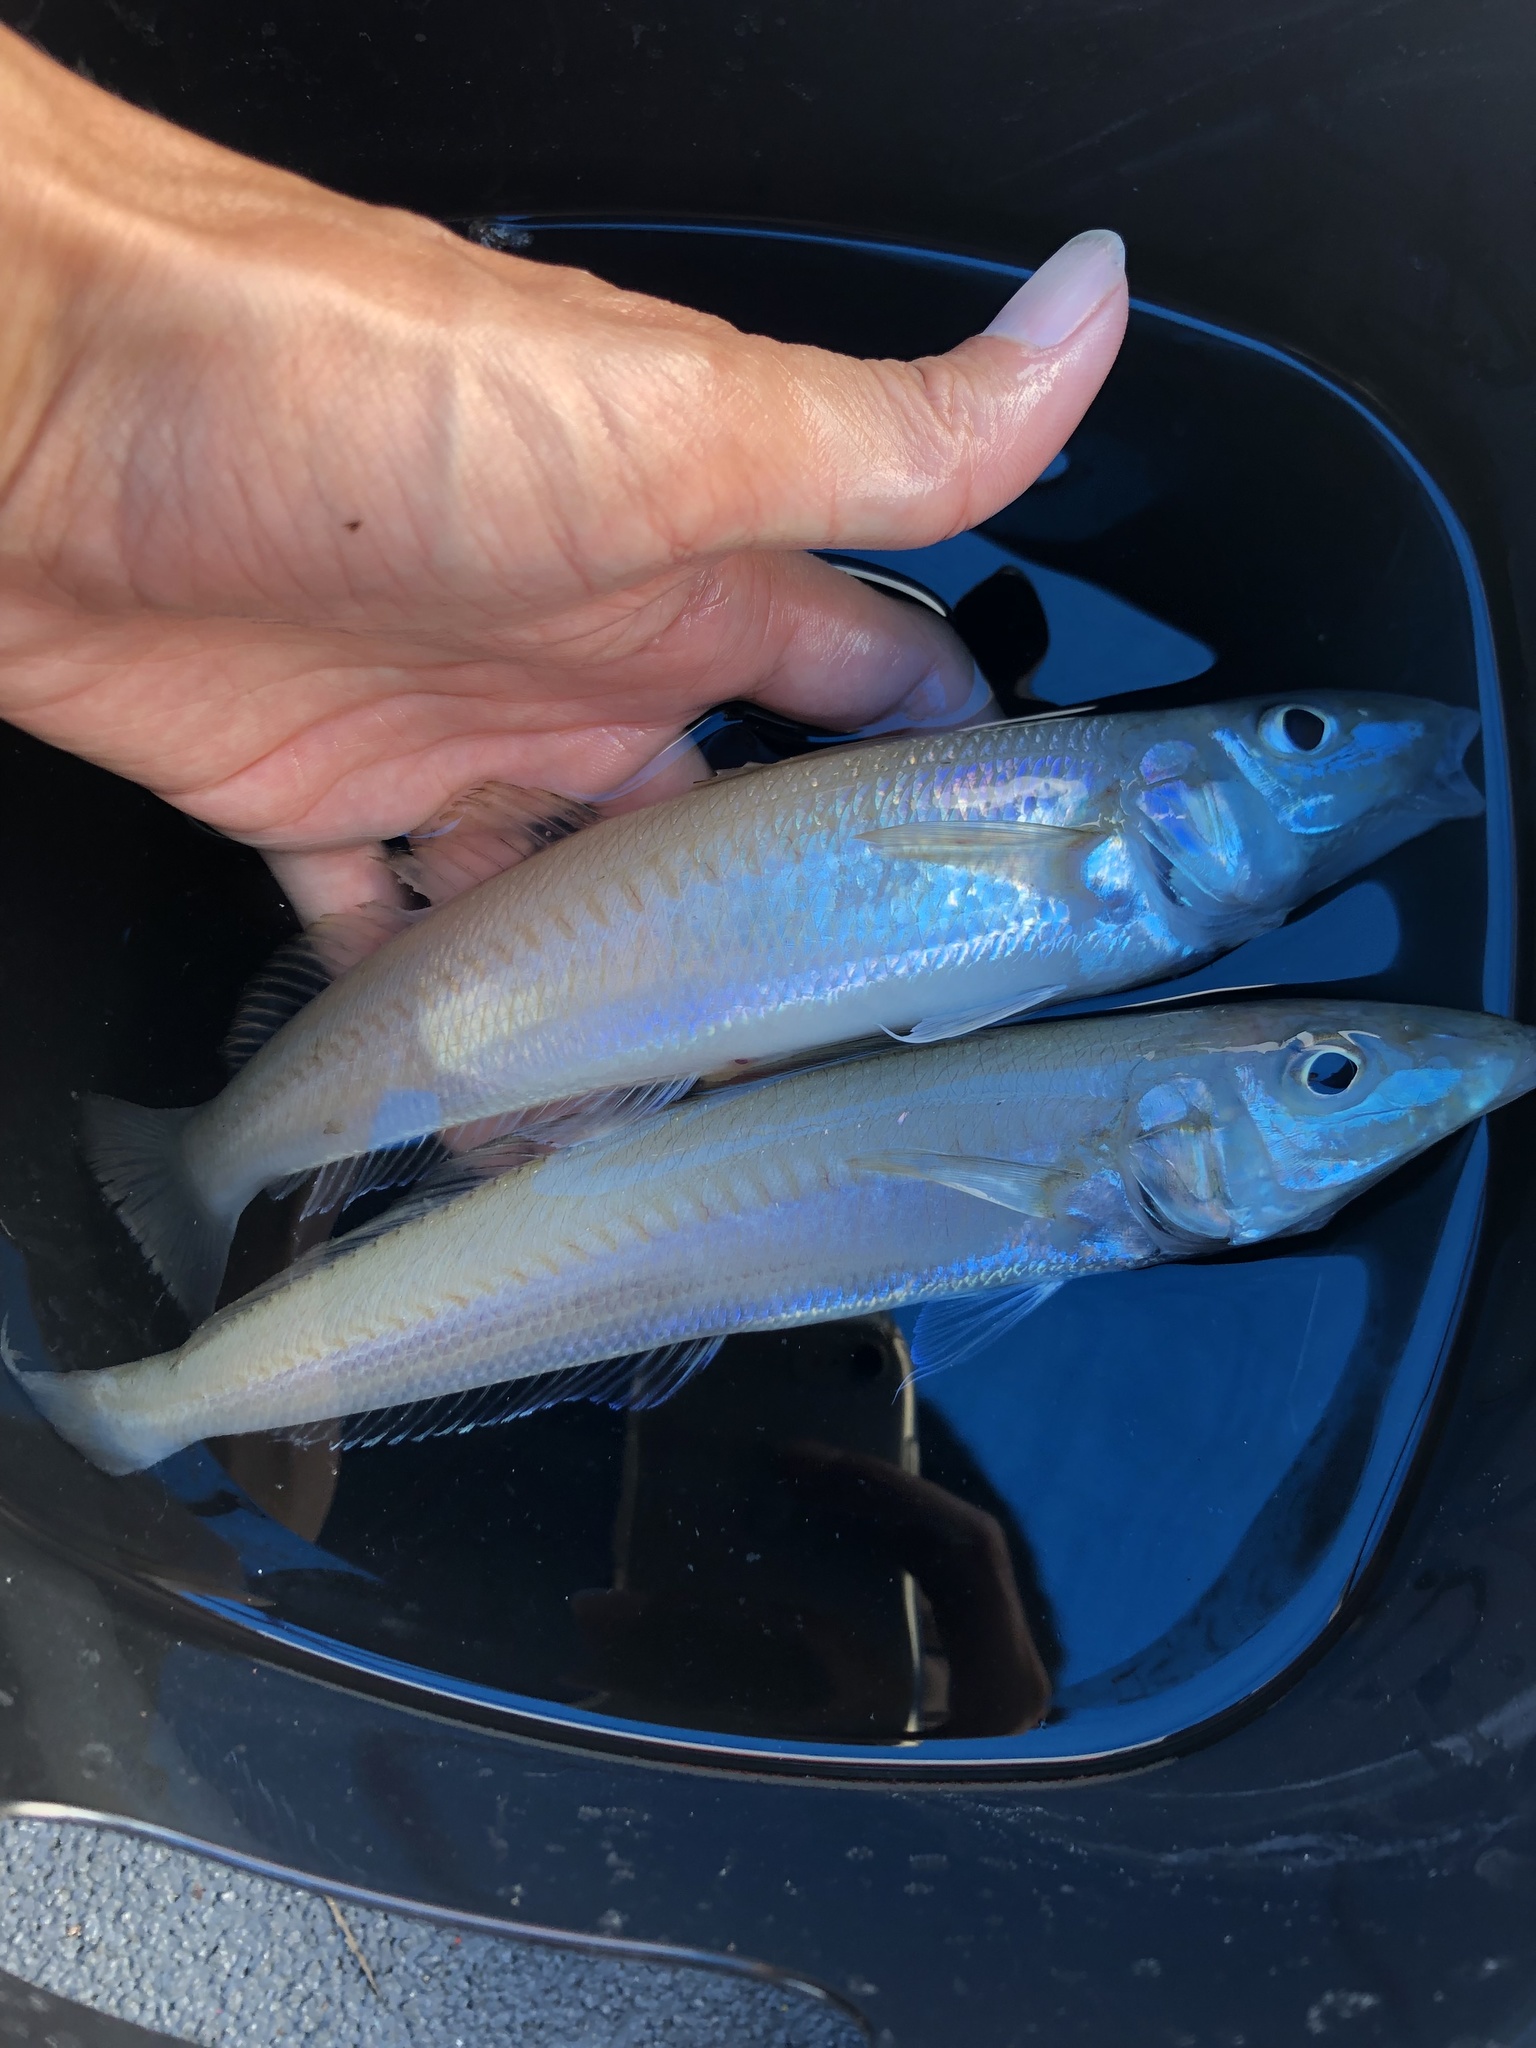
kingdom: Animalia
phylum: Chordata
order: Perciformes
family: Sillaginidae
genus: Sillago
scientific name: Sillago japonica
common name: Japanese sillago
